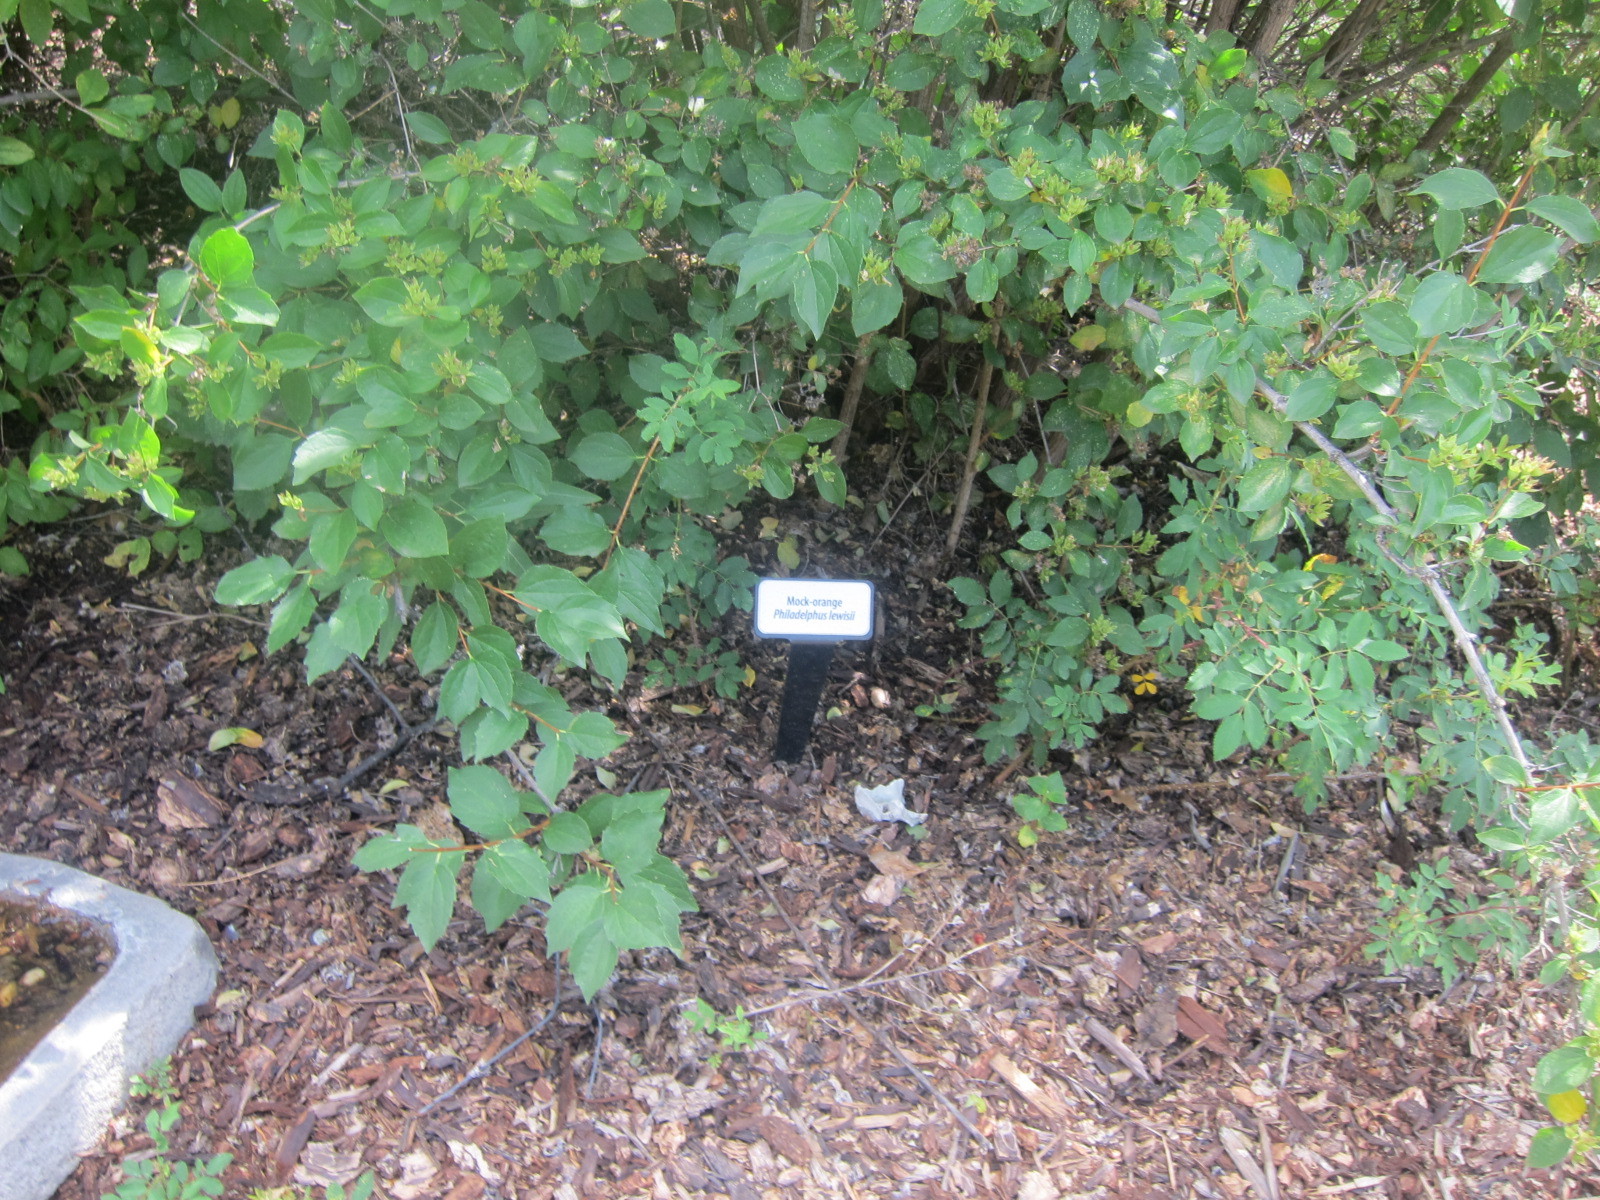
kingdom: Plantae
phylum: Tracheophyta
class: Magnoliopsida
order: Cornales
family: Hydrangeaceae
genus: Philadelphus
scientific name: Philadelphus lewisii
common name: Lewis's mock orange
